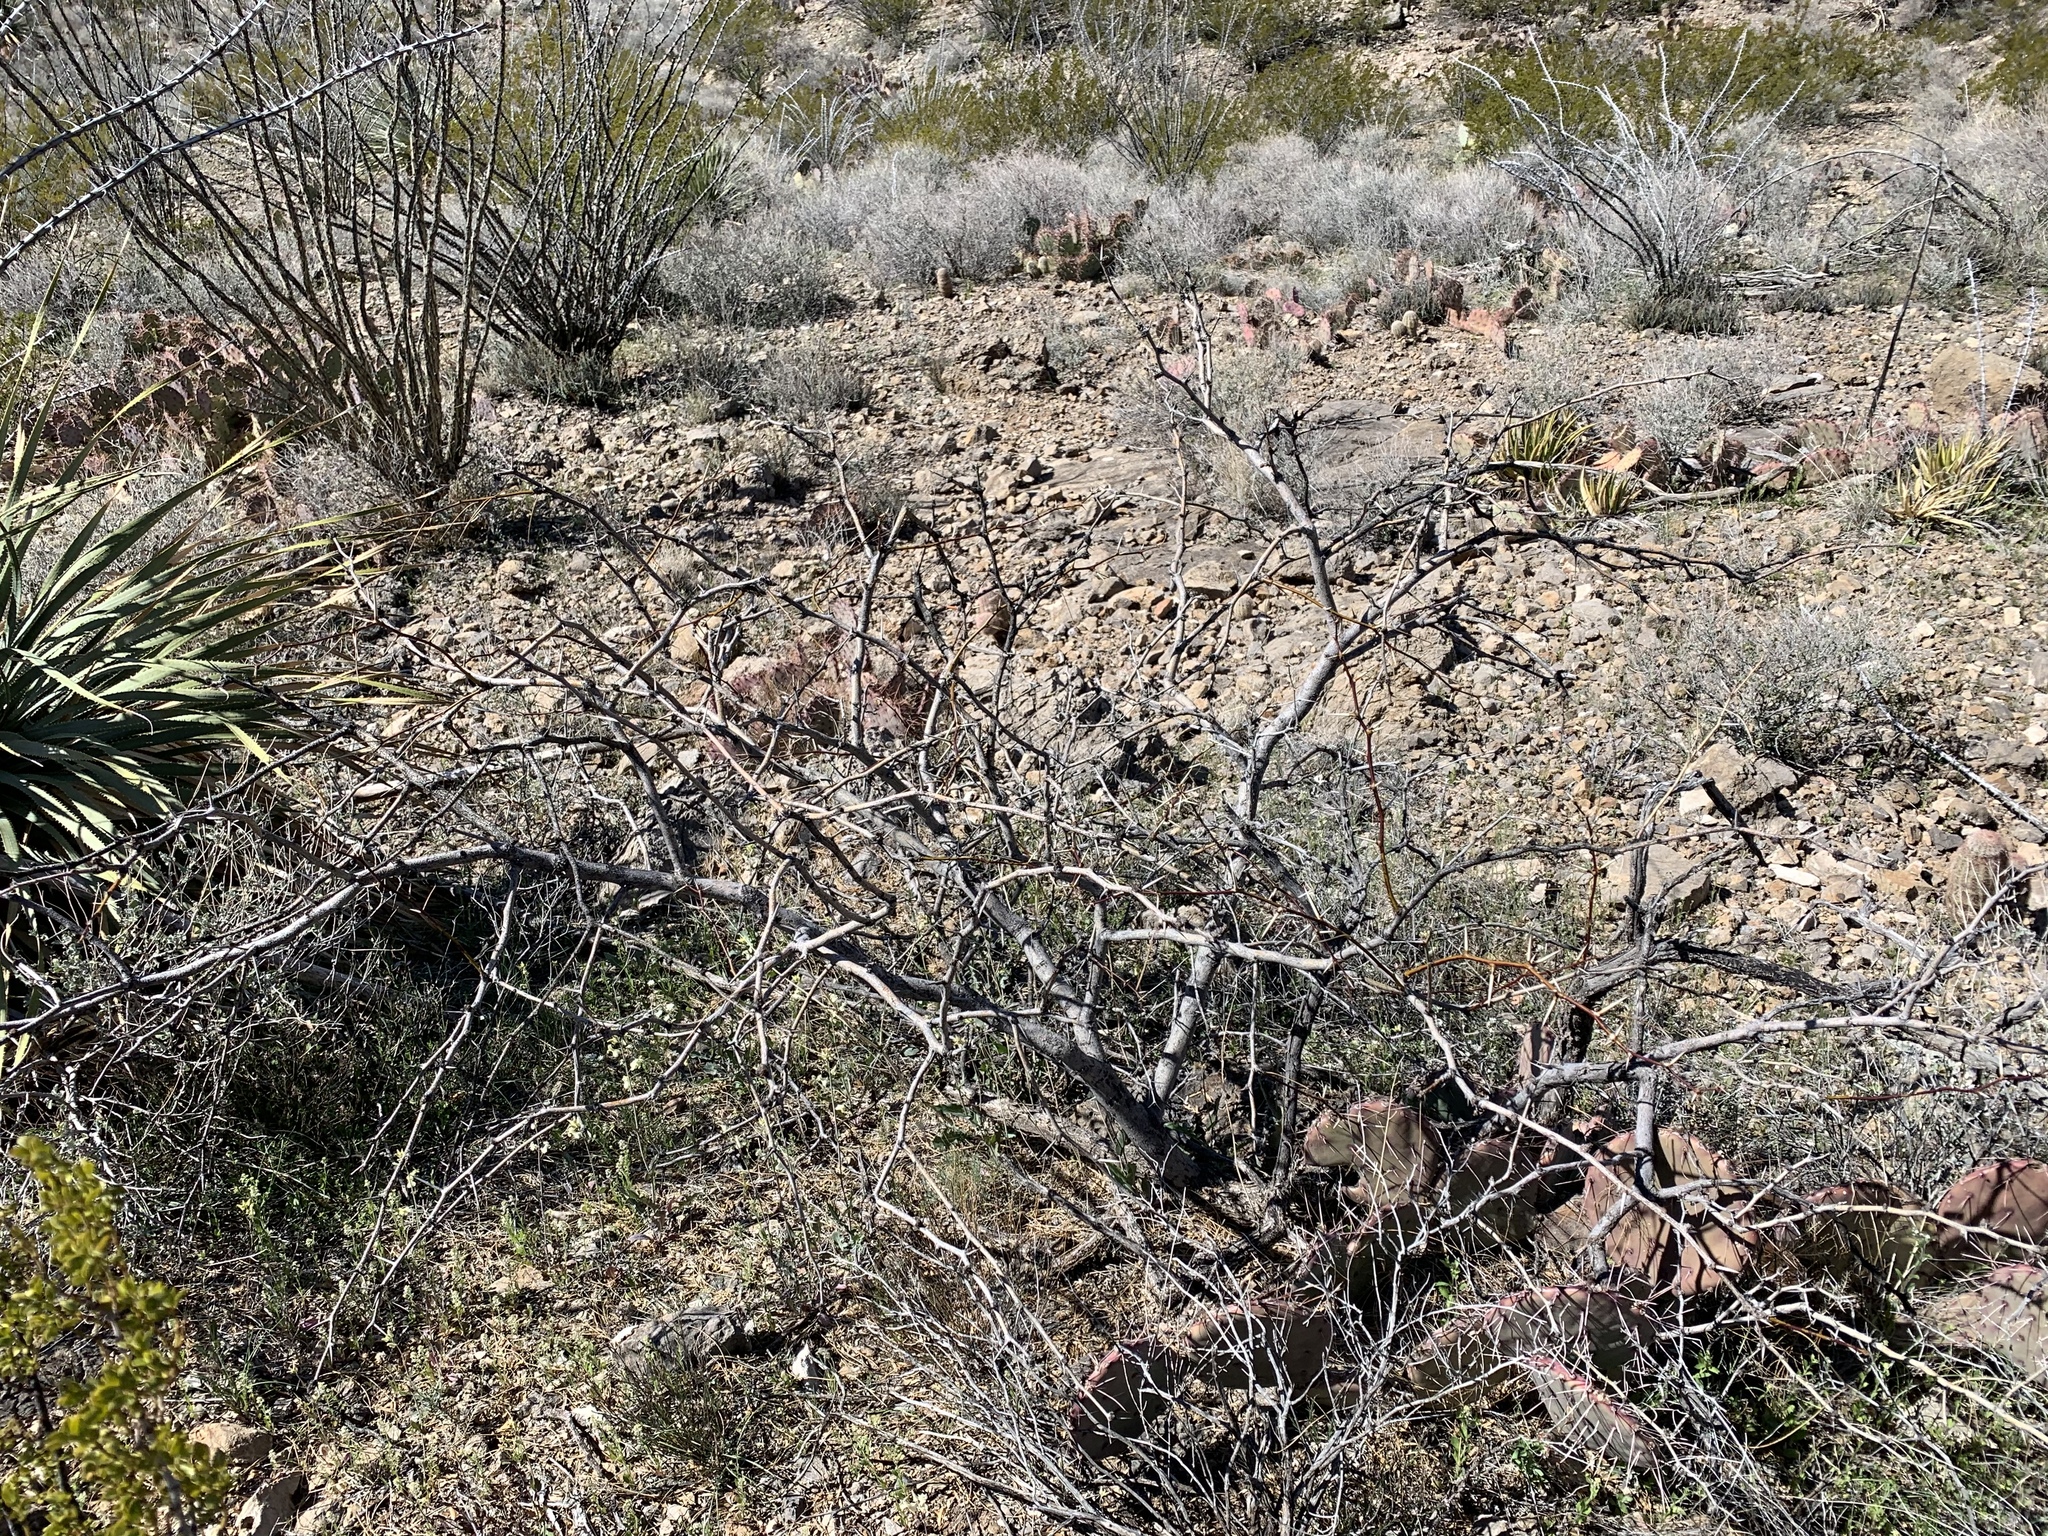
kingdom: Plantae
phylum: Tracheophyta
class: Magnoliopsida
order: Fabales
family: Fabaceae
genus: Prosopis
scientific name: Prosopis glandulosa
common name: Honey mesquite
